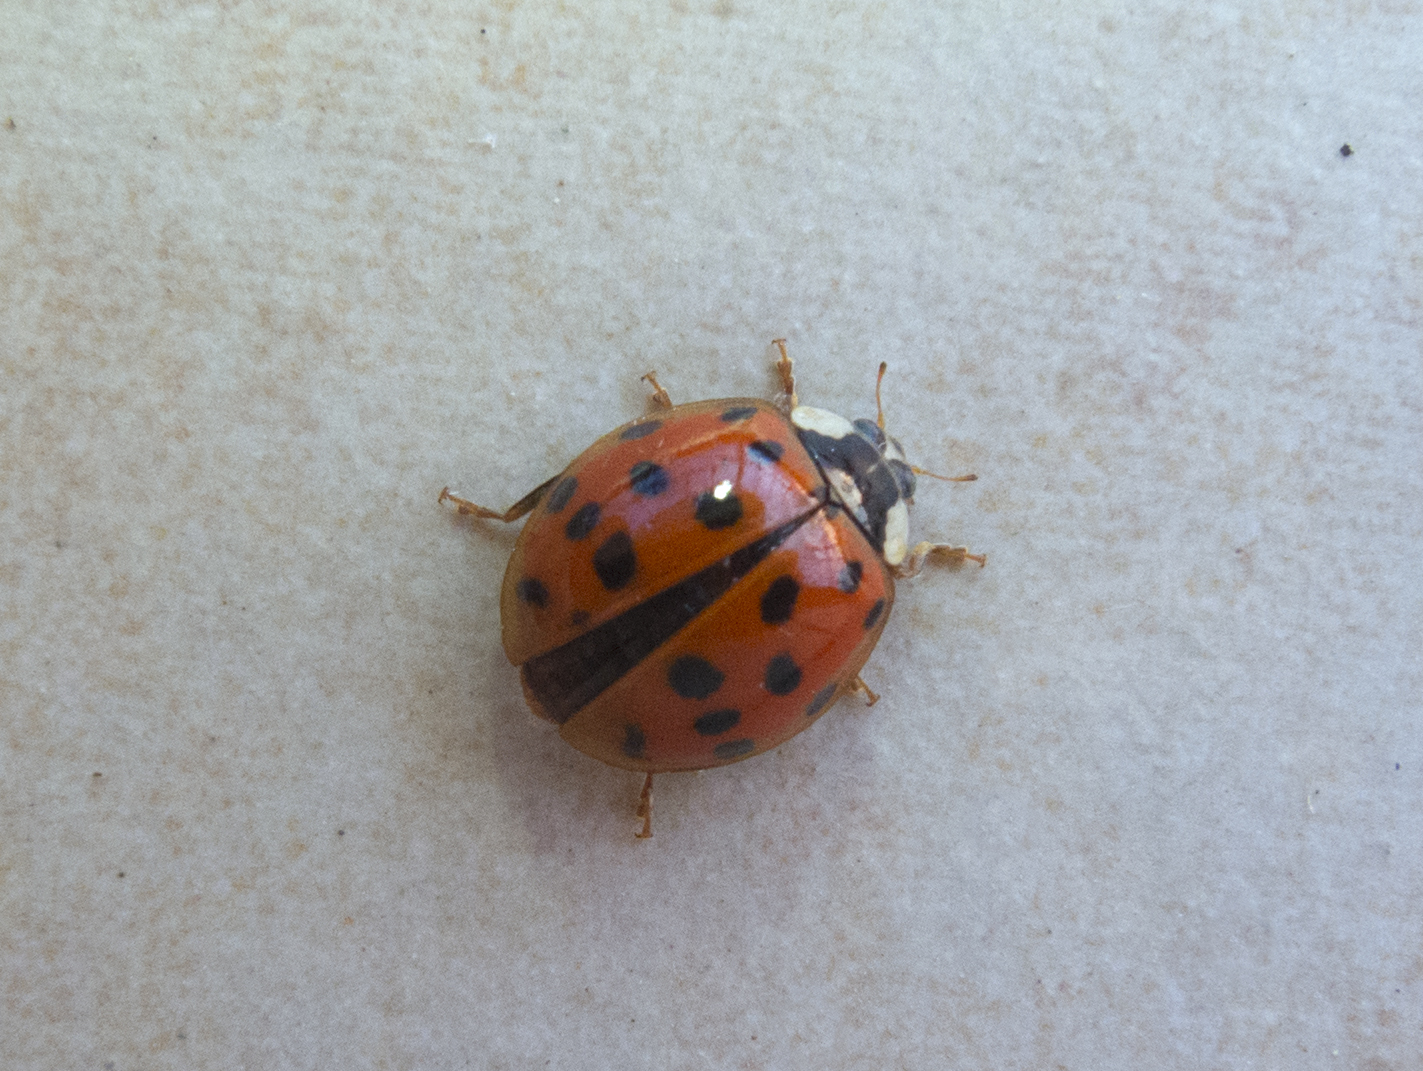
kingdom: Animalia
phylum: Arthropoda
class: Insecta
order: Coleoptera
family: Coccinellidae
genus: Harmonia
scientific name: Harmonia axyridis
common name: Harlequin ladybird
